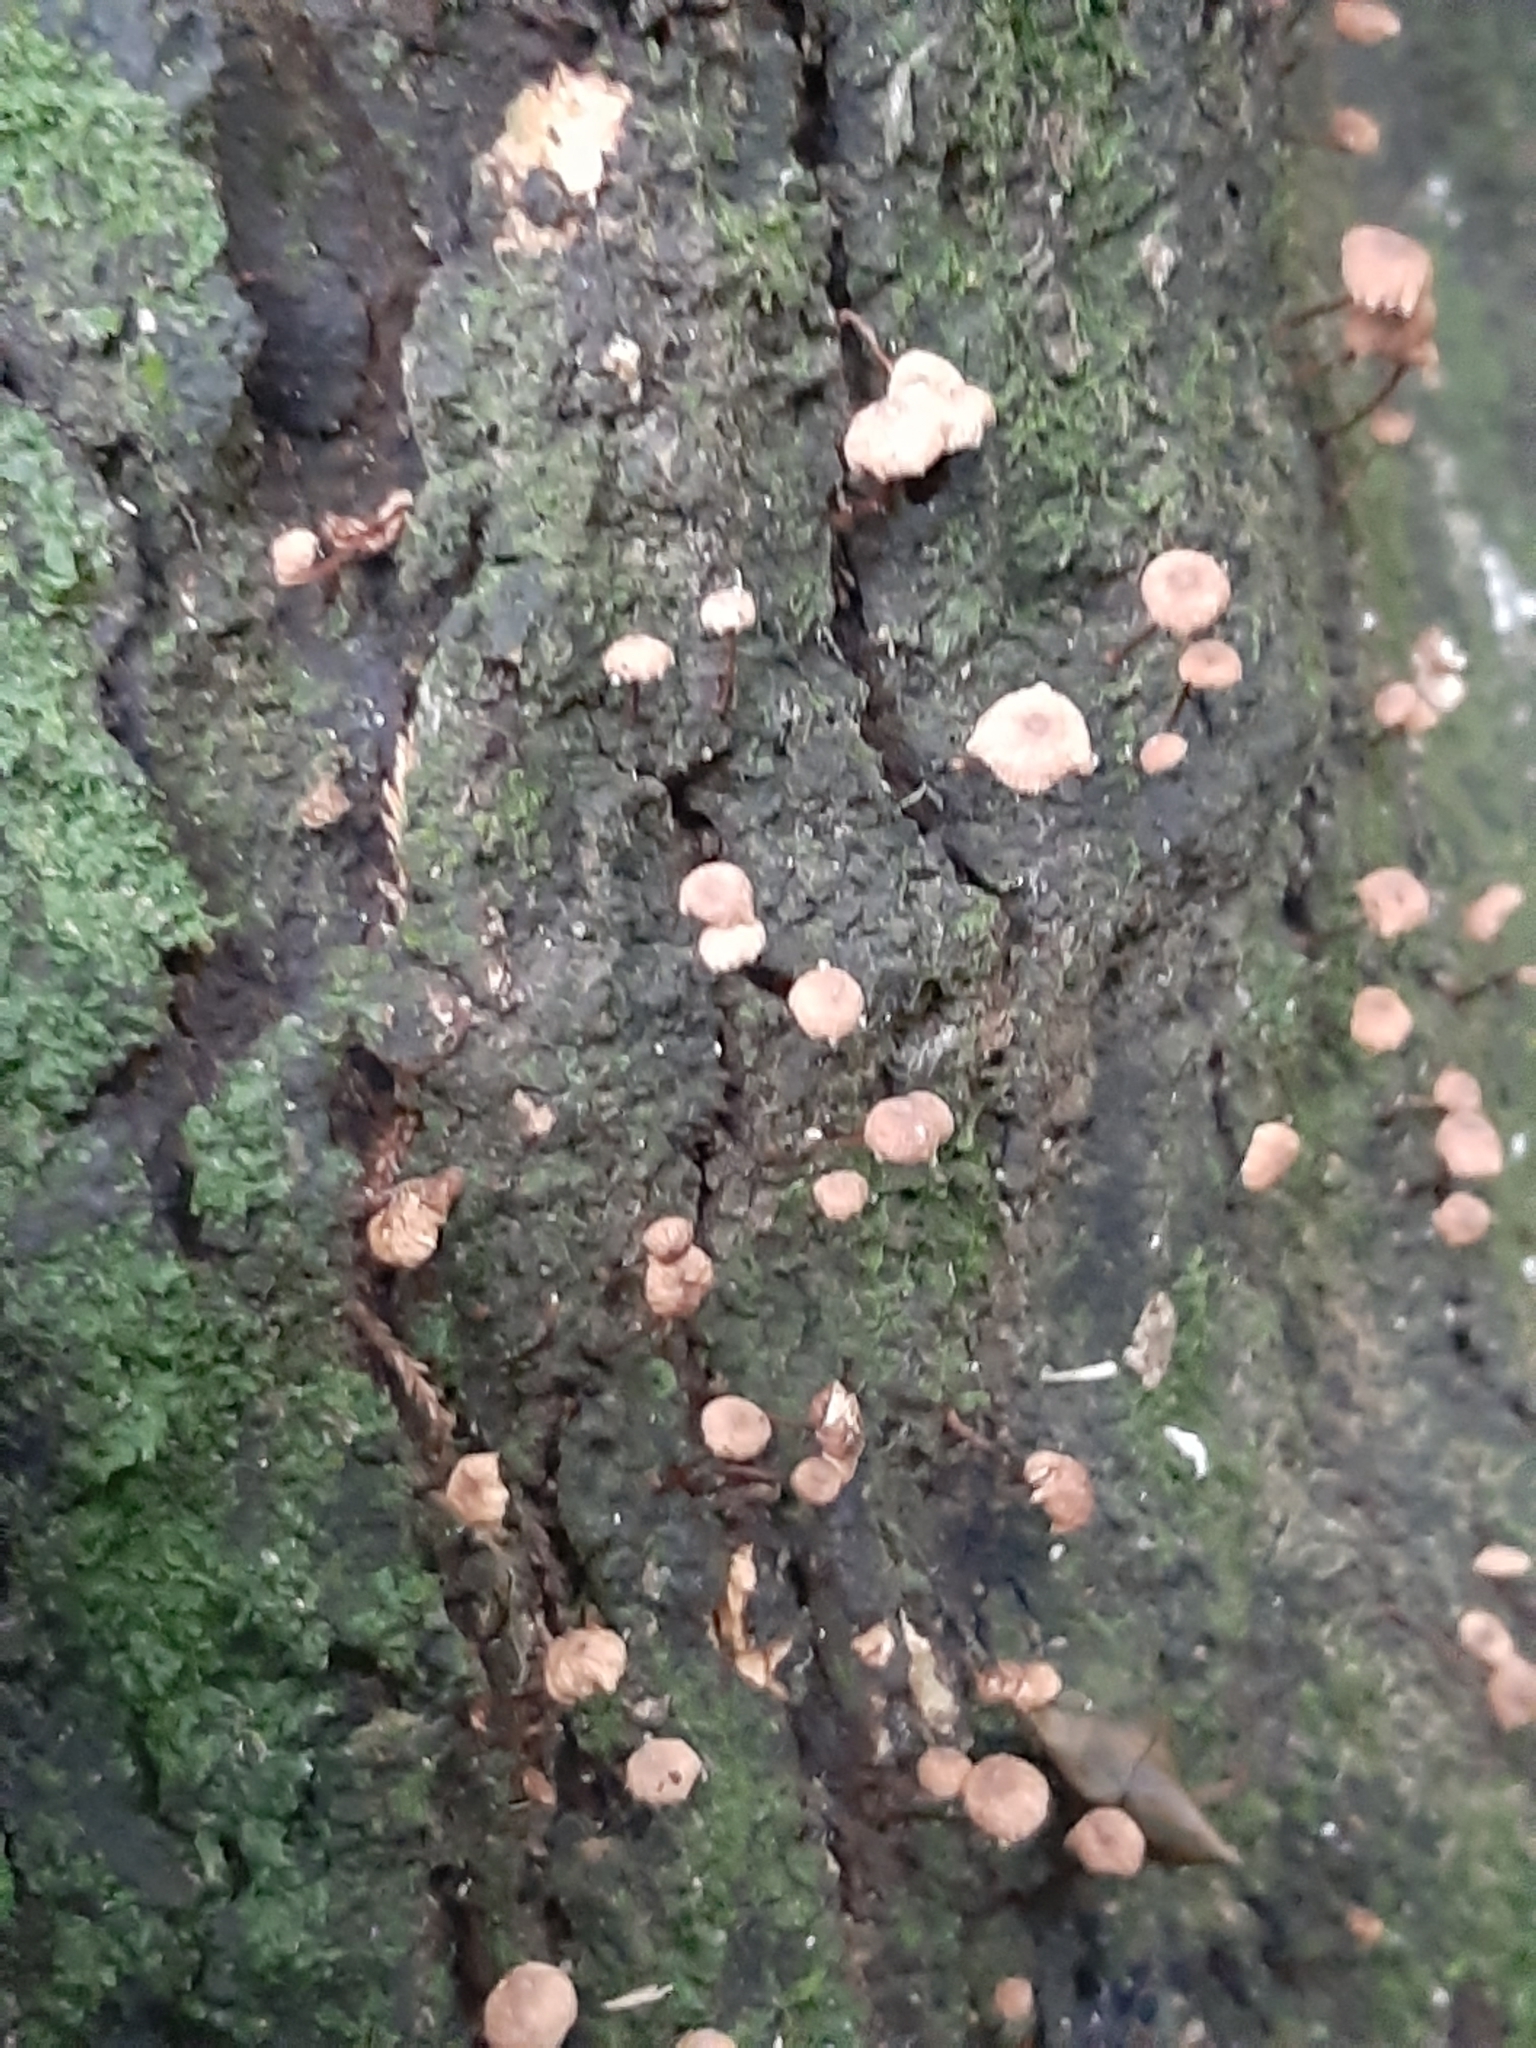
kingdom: Fungi
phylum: Basidiomycota
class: Agaricomycetes
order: Agaricales
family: Omphalotaceae
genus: Mycetinis
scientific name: Mycetinis curraniae
